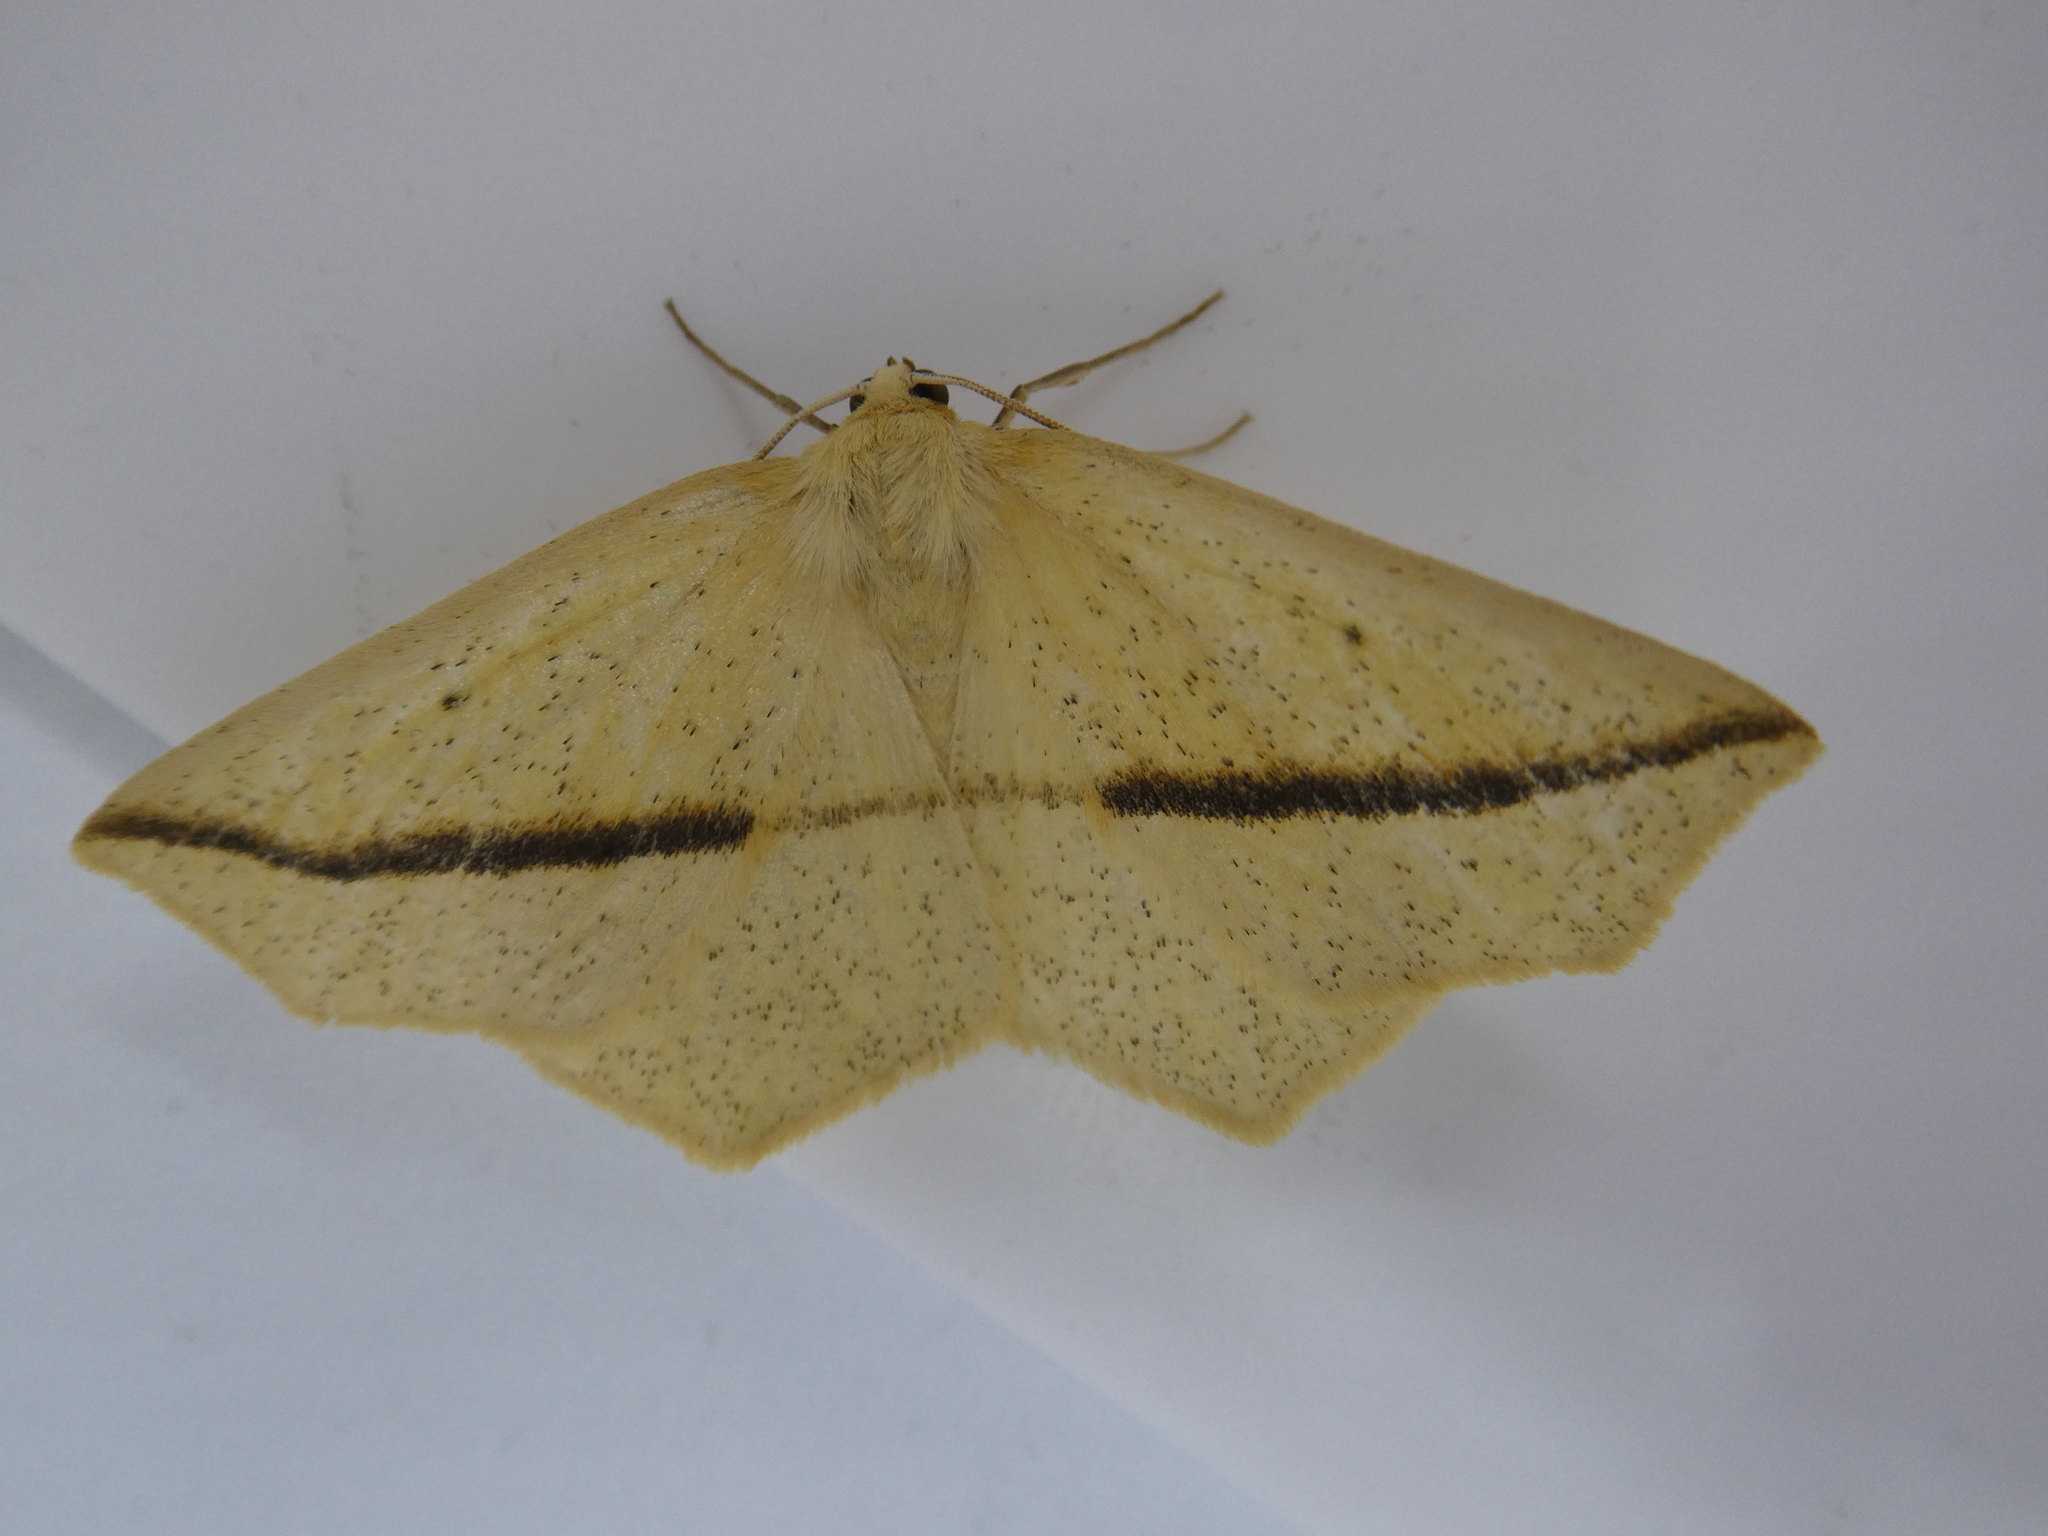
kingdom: Animalia
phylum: Arthropoda
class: Insecta
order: Lepidoptera
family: Geometridae
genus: Tetracis
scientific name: Tetracis crocallata
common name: Yellow slant-line
